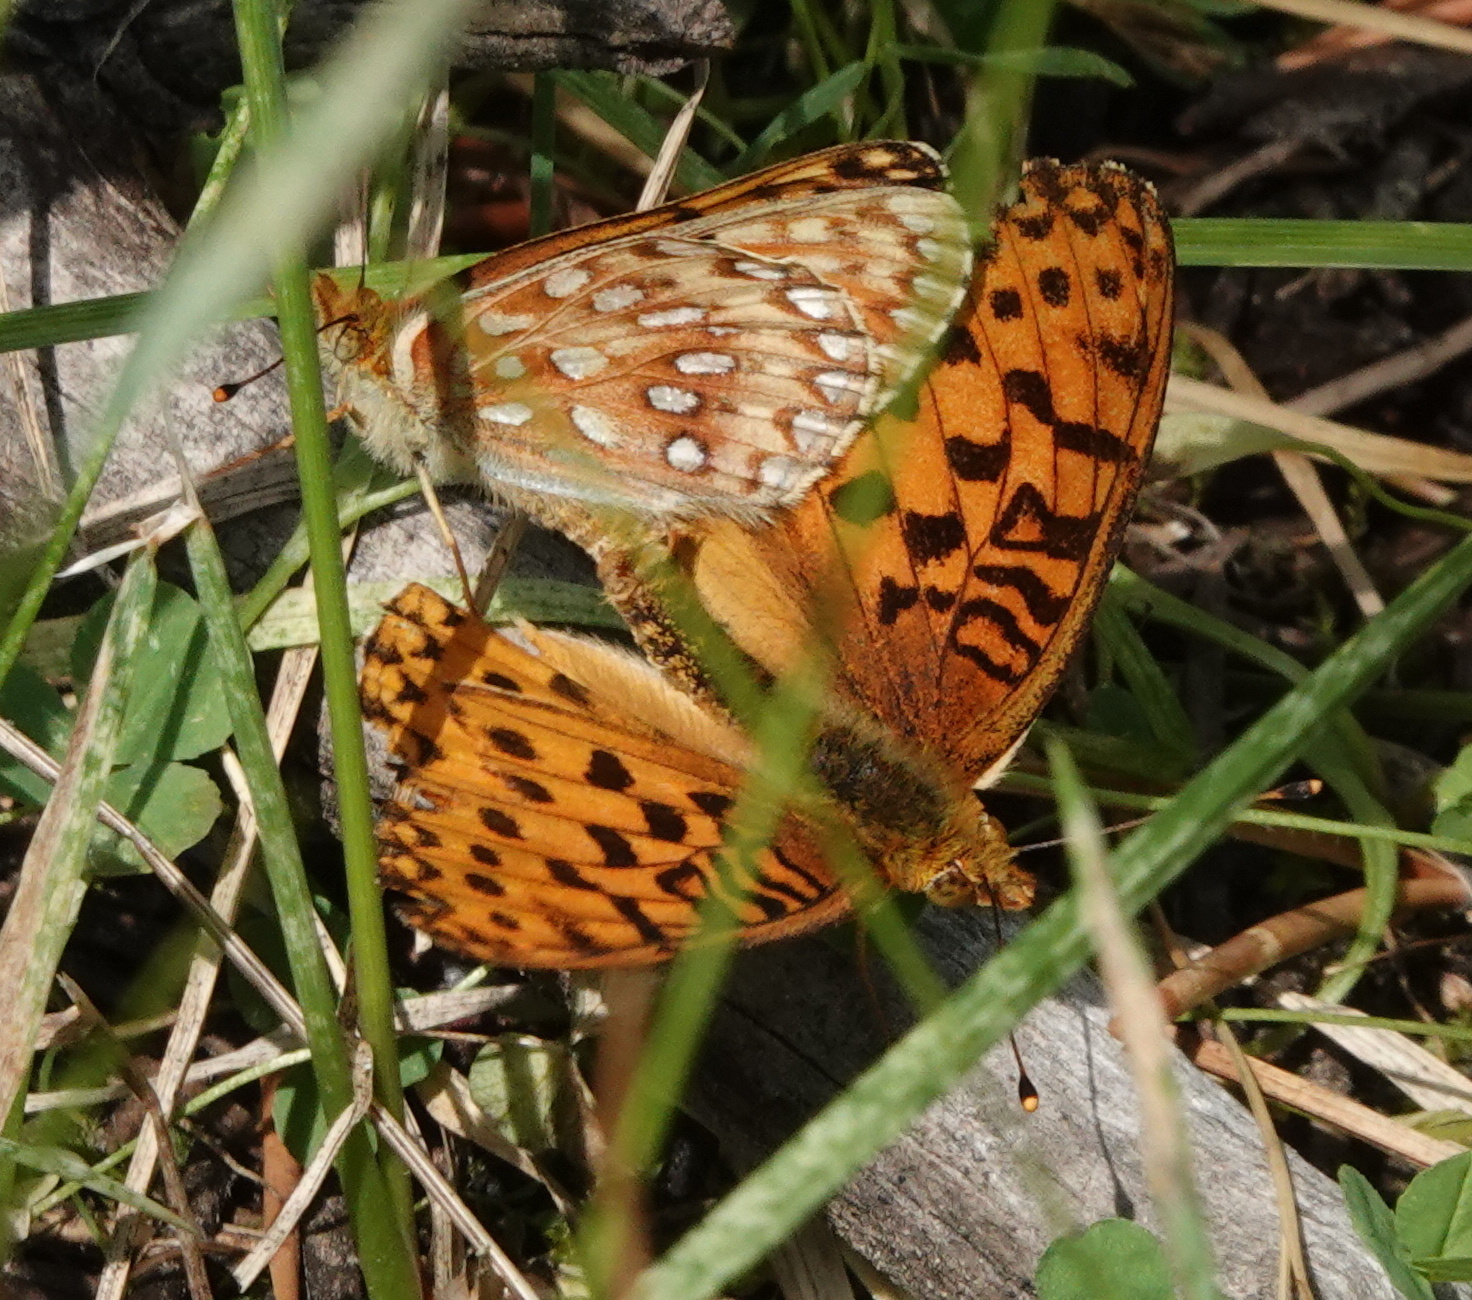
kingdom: Animalia
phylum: Arthropoda
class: Insecta
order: Lepidoptera
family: Nymphalidae
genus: Speyeria
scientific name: Speyeria mormonia
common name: Mormon fritillary
